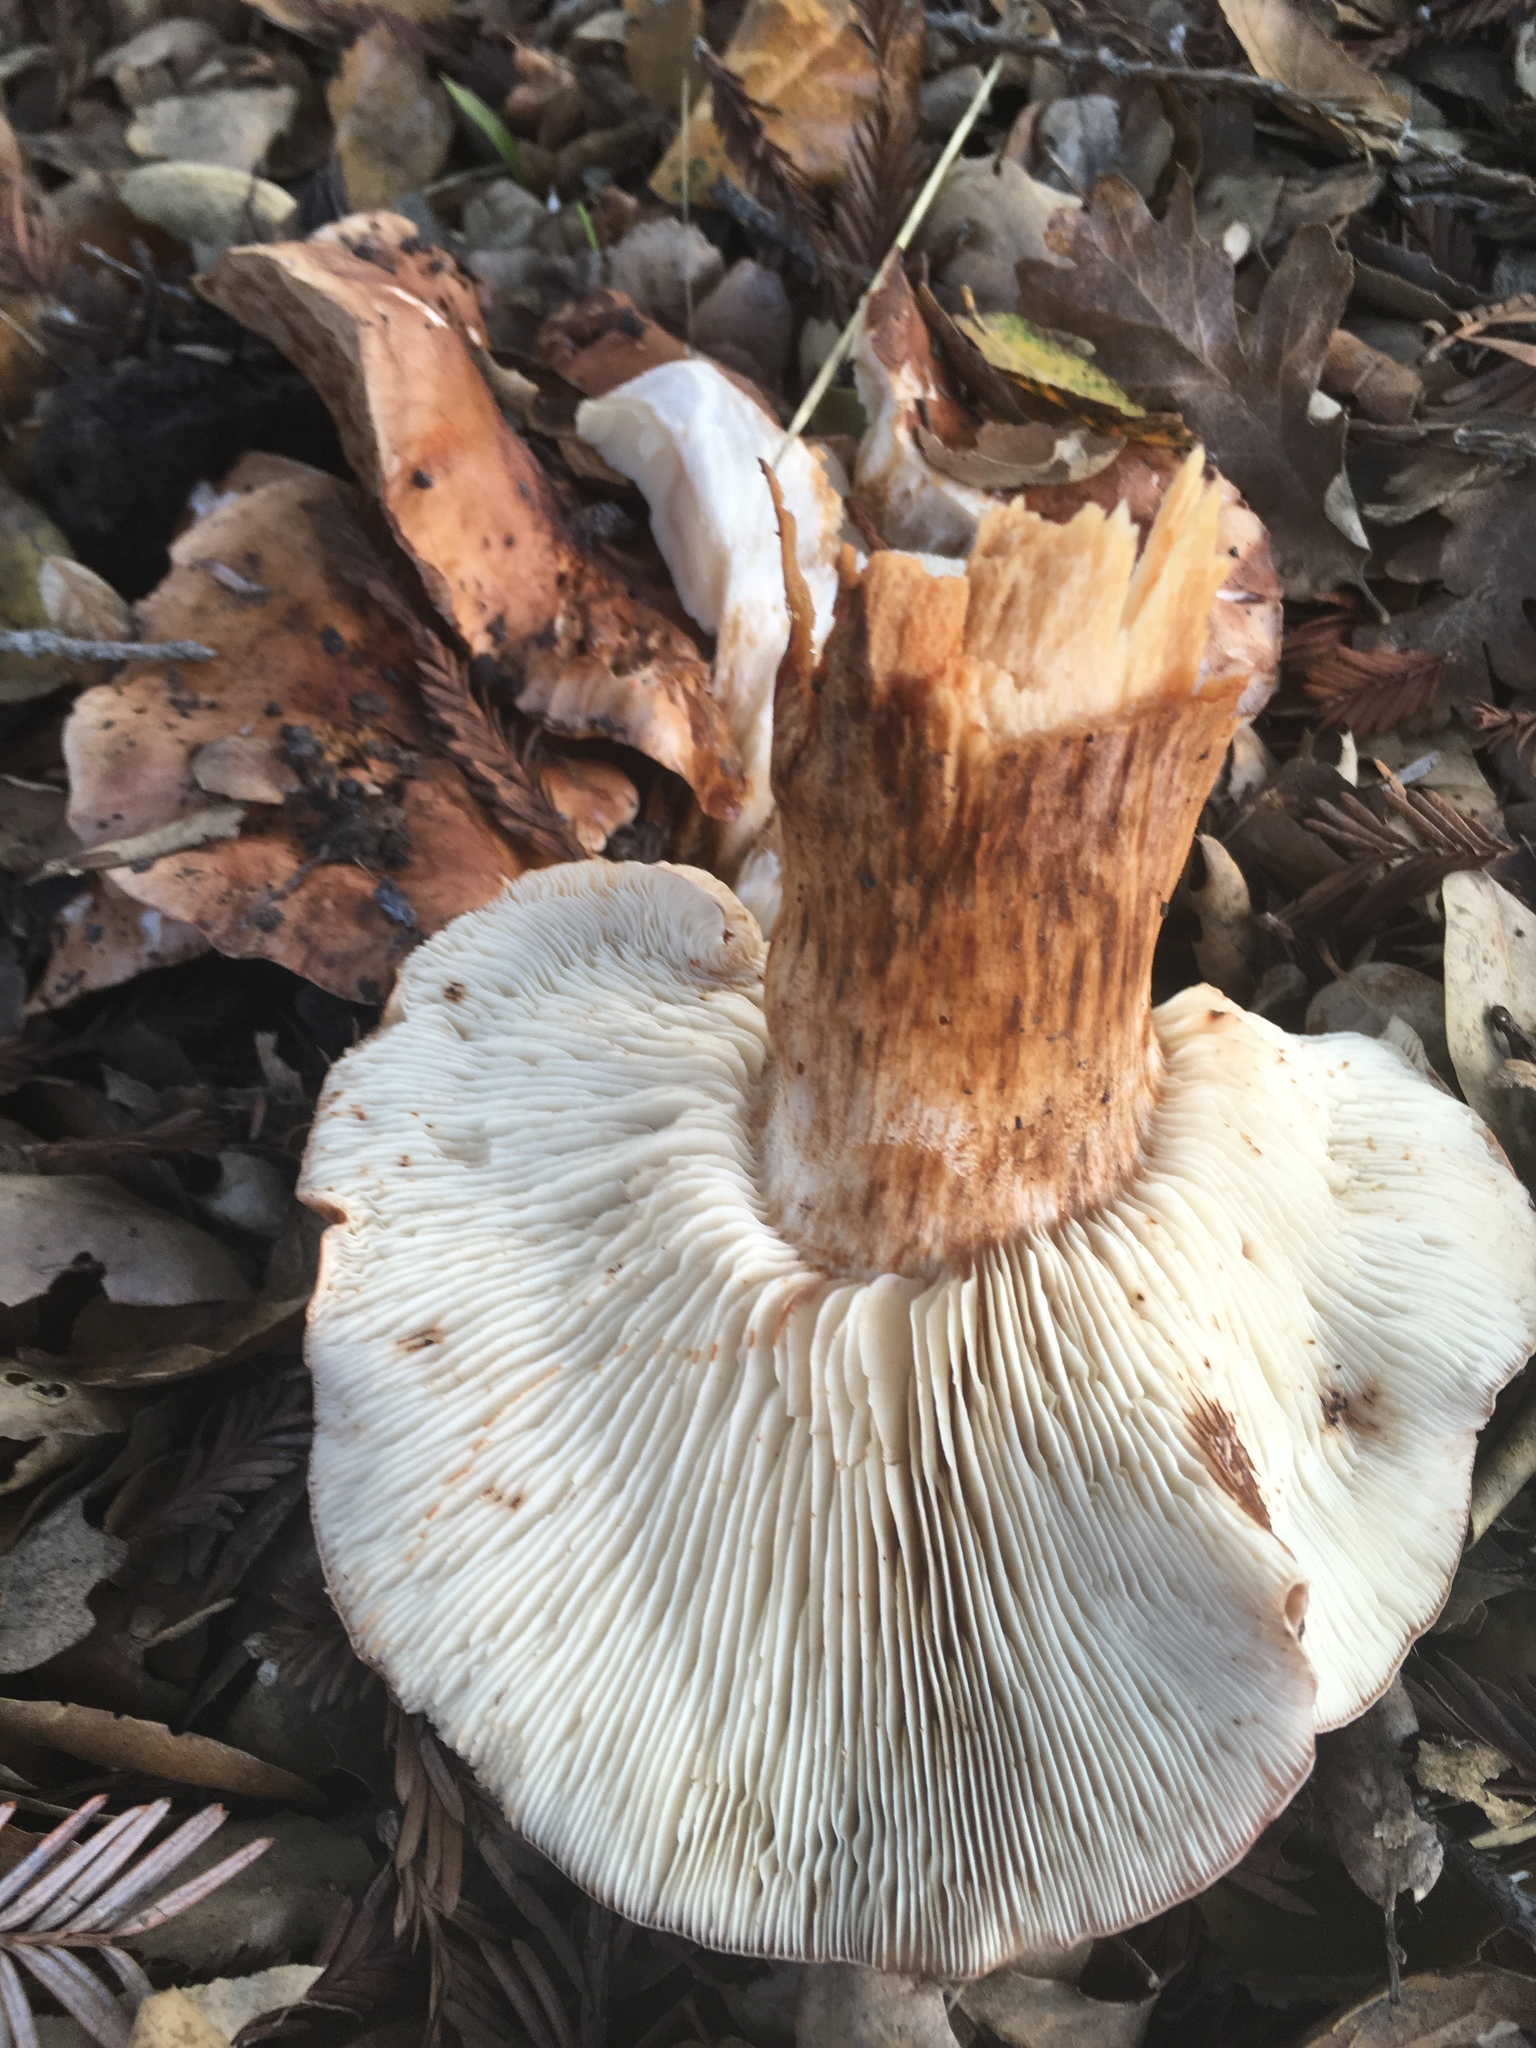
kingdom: Fungi
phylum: Basidiomycota
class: Agaricomycetes
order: Agaricales
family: Tricholomataceae
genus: Melanoleuca
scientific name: Melanoleuca dryophila
